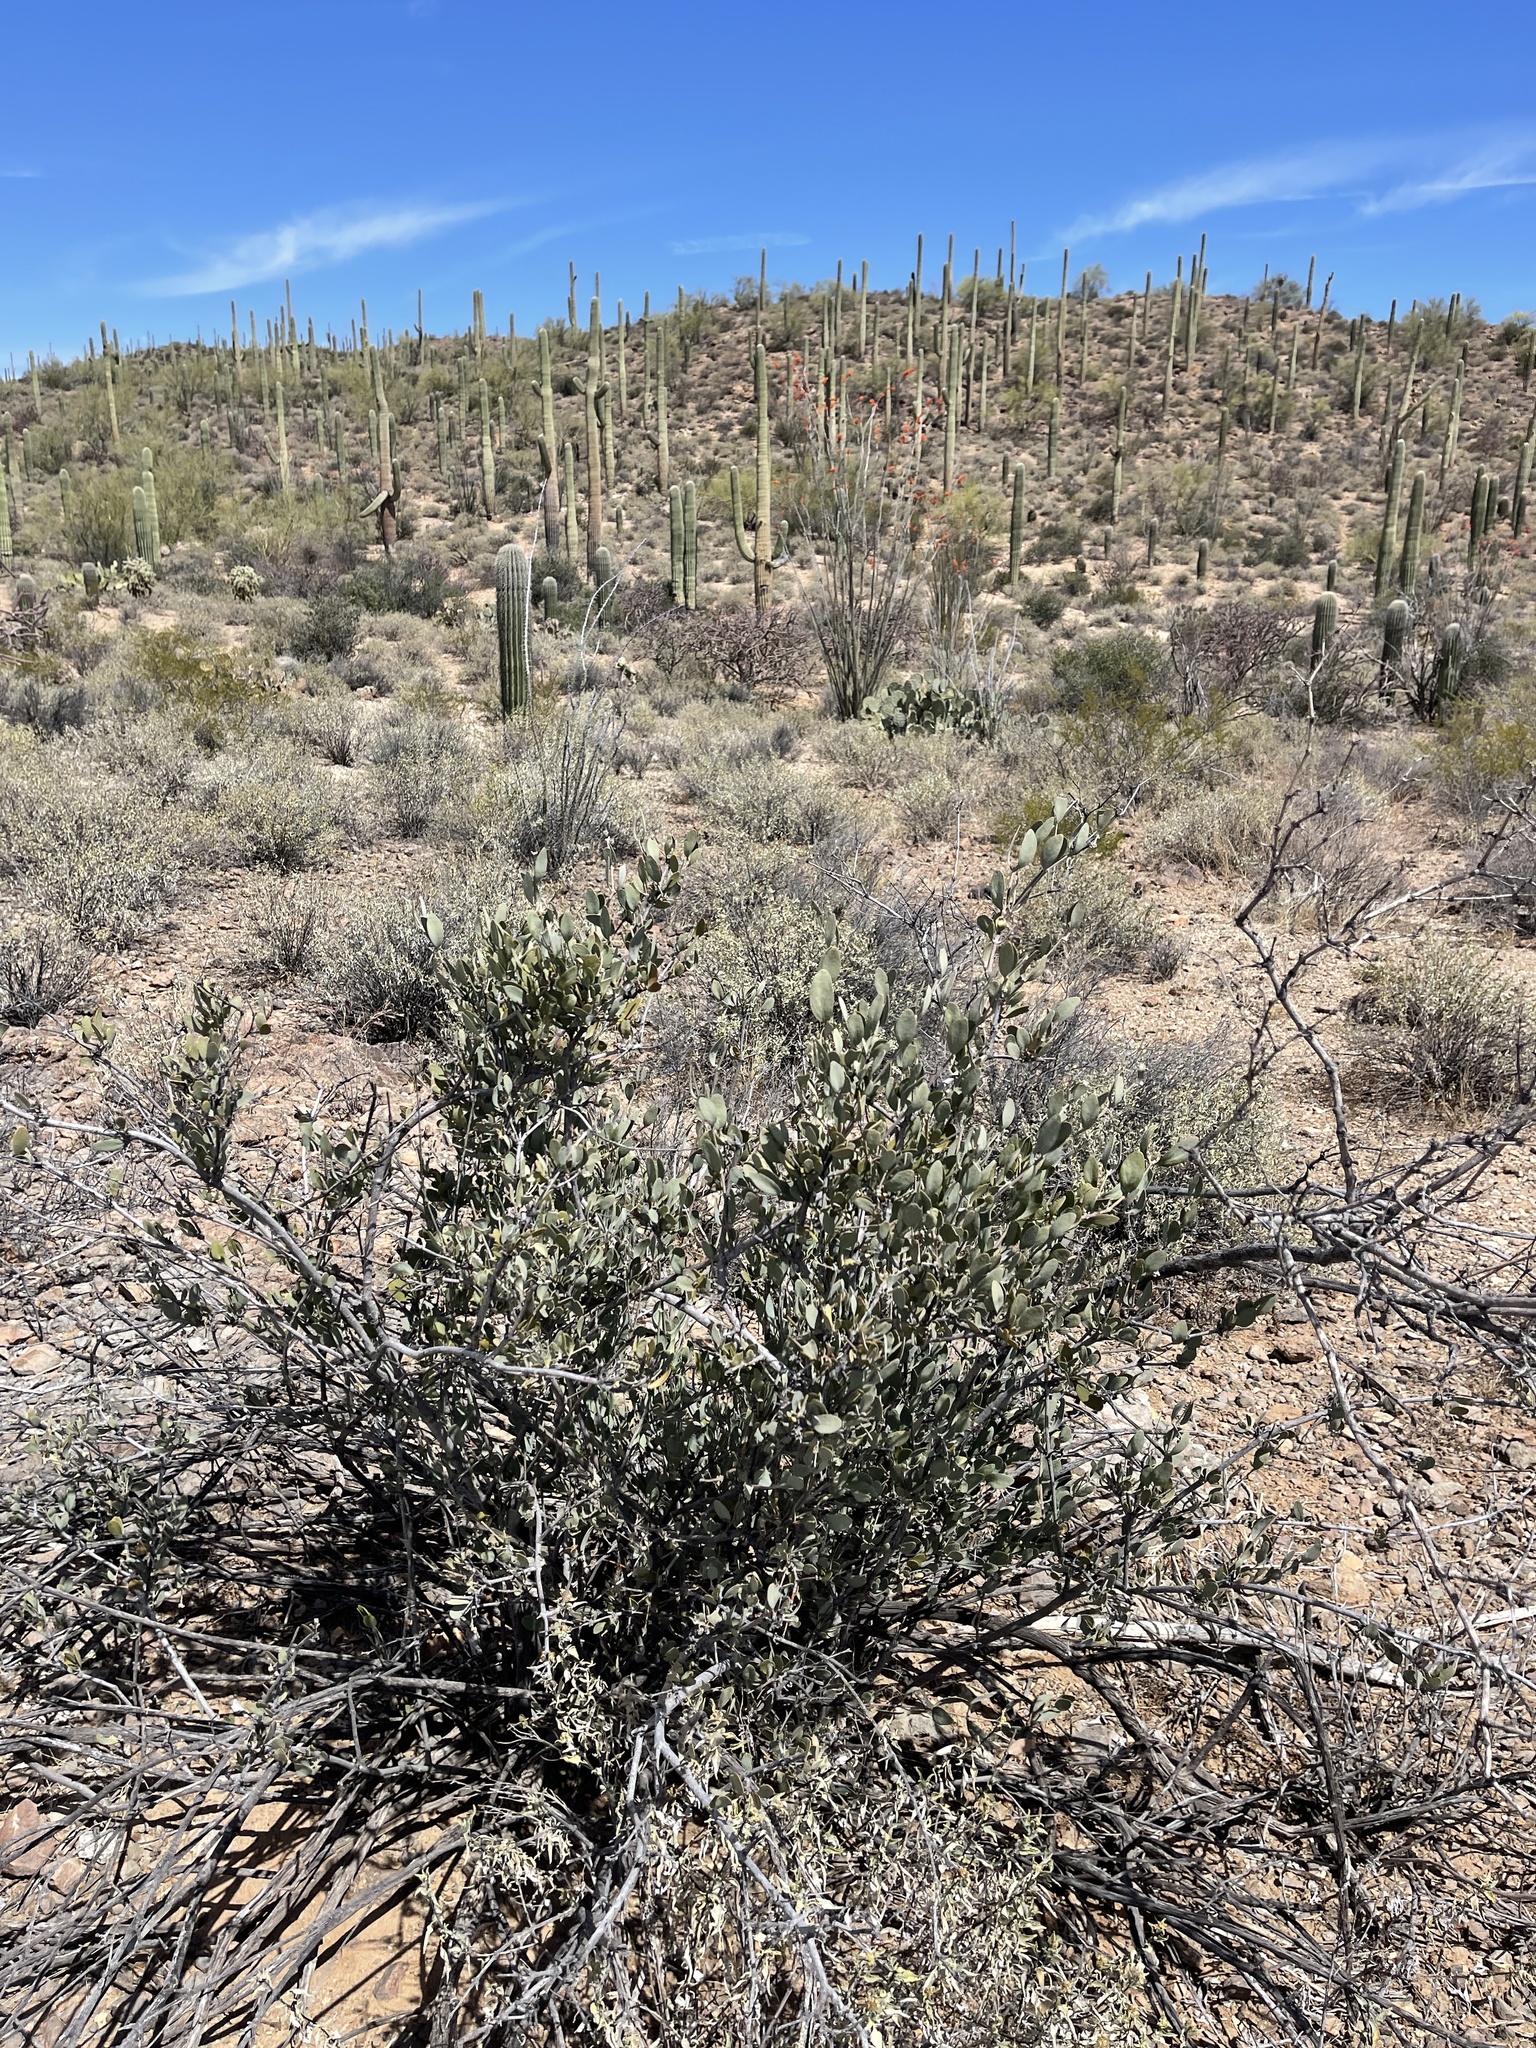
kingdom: Plantae
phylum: Tracheophyta
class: Magnoliopsida
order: Caryophyllales
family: Simmondsiaceae
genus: Simmondsia
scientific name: Simmondsia chinensis
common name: Jojoba
